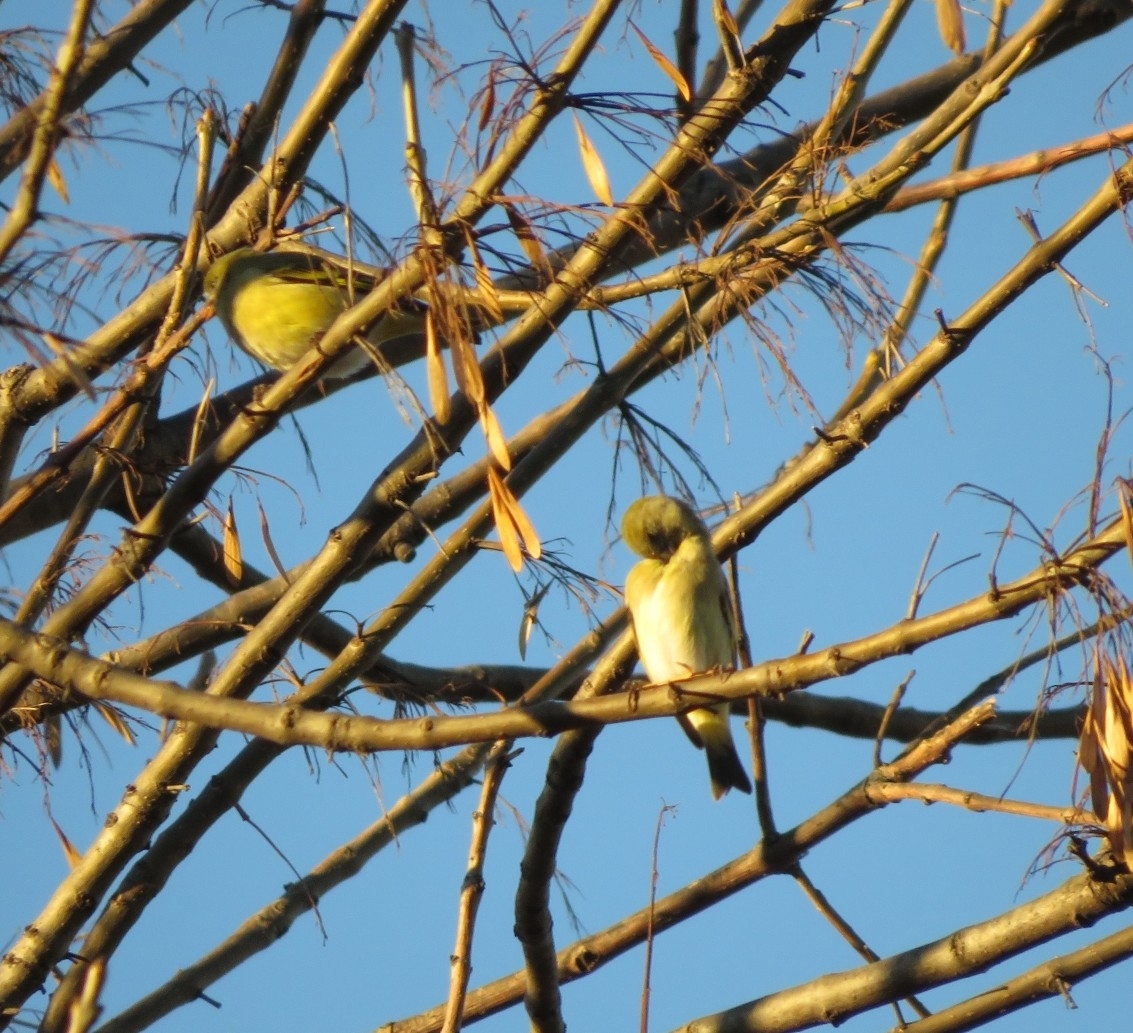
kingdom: Animalia
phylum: Chordata
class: Aves
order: Passeriformes
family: Fringillidae
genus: Spinus
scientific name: Spinus magellanicus
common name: Hooded siskin
